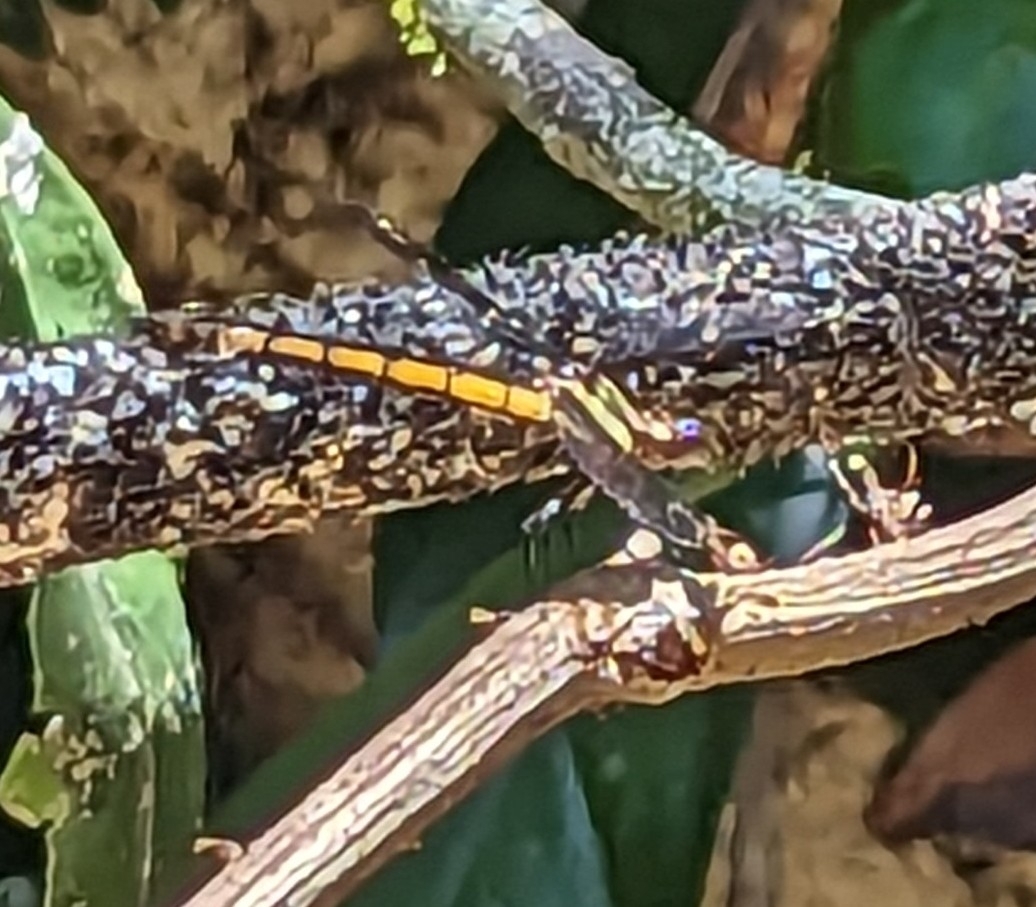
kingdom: Animalia
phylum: Arthropoda
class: Insecta
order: Odonata
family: Lestoideidae
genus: Diphlebia
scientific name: Diphlebia euphoeoides
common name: Tropical rockmaster
